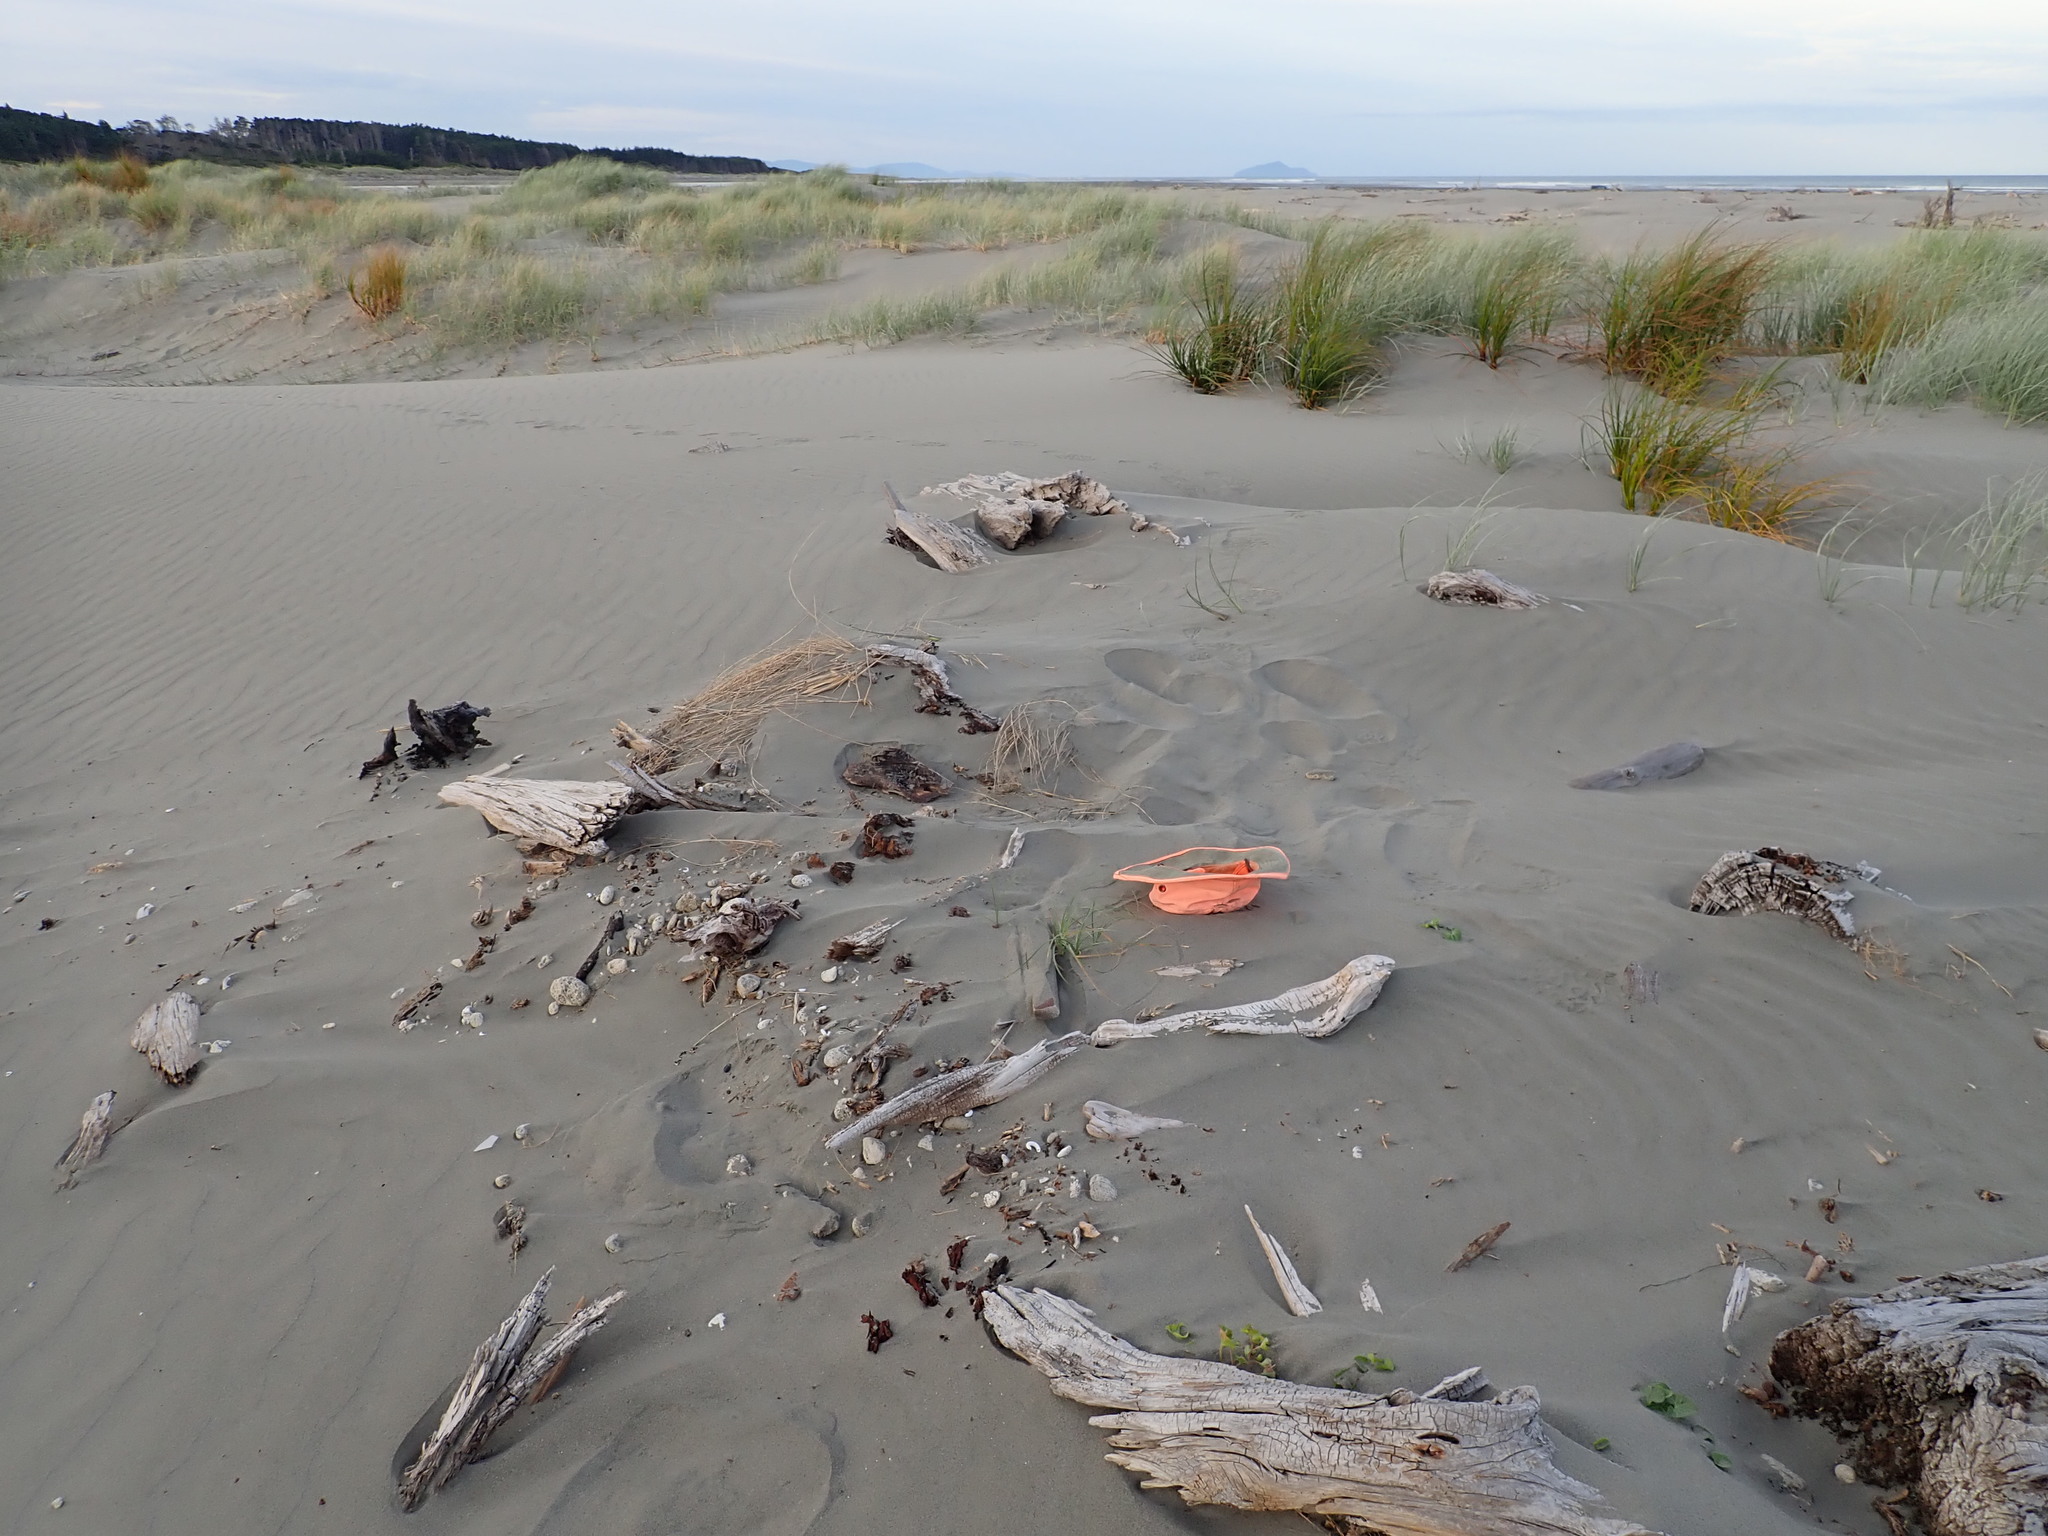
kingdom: Plantae
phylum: Tracheophyta
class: Liliopsida
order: Poales
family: Cyperaceae
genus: Carex
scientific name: Carex pumila
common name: Dwarf sedge
